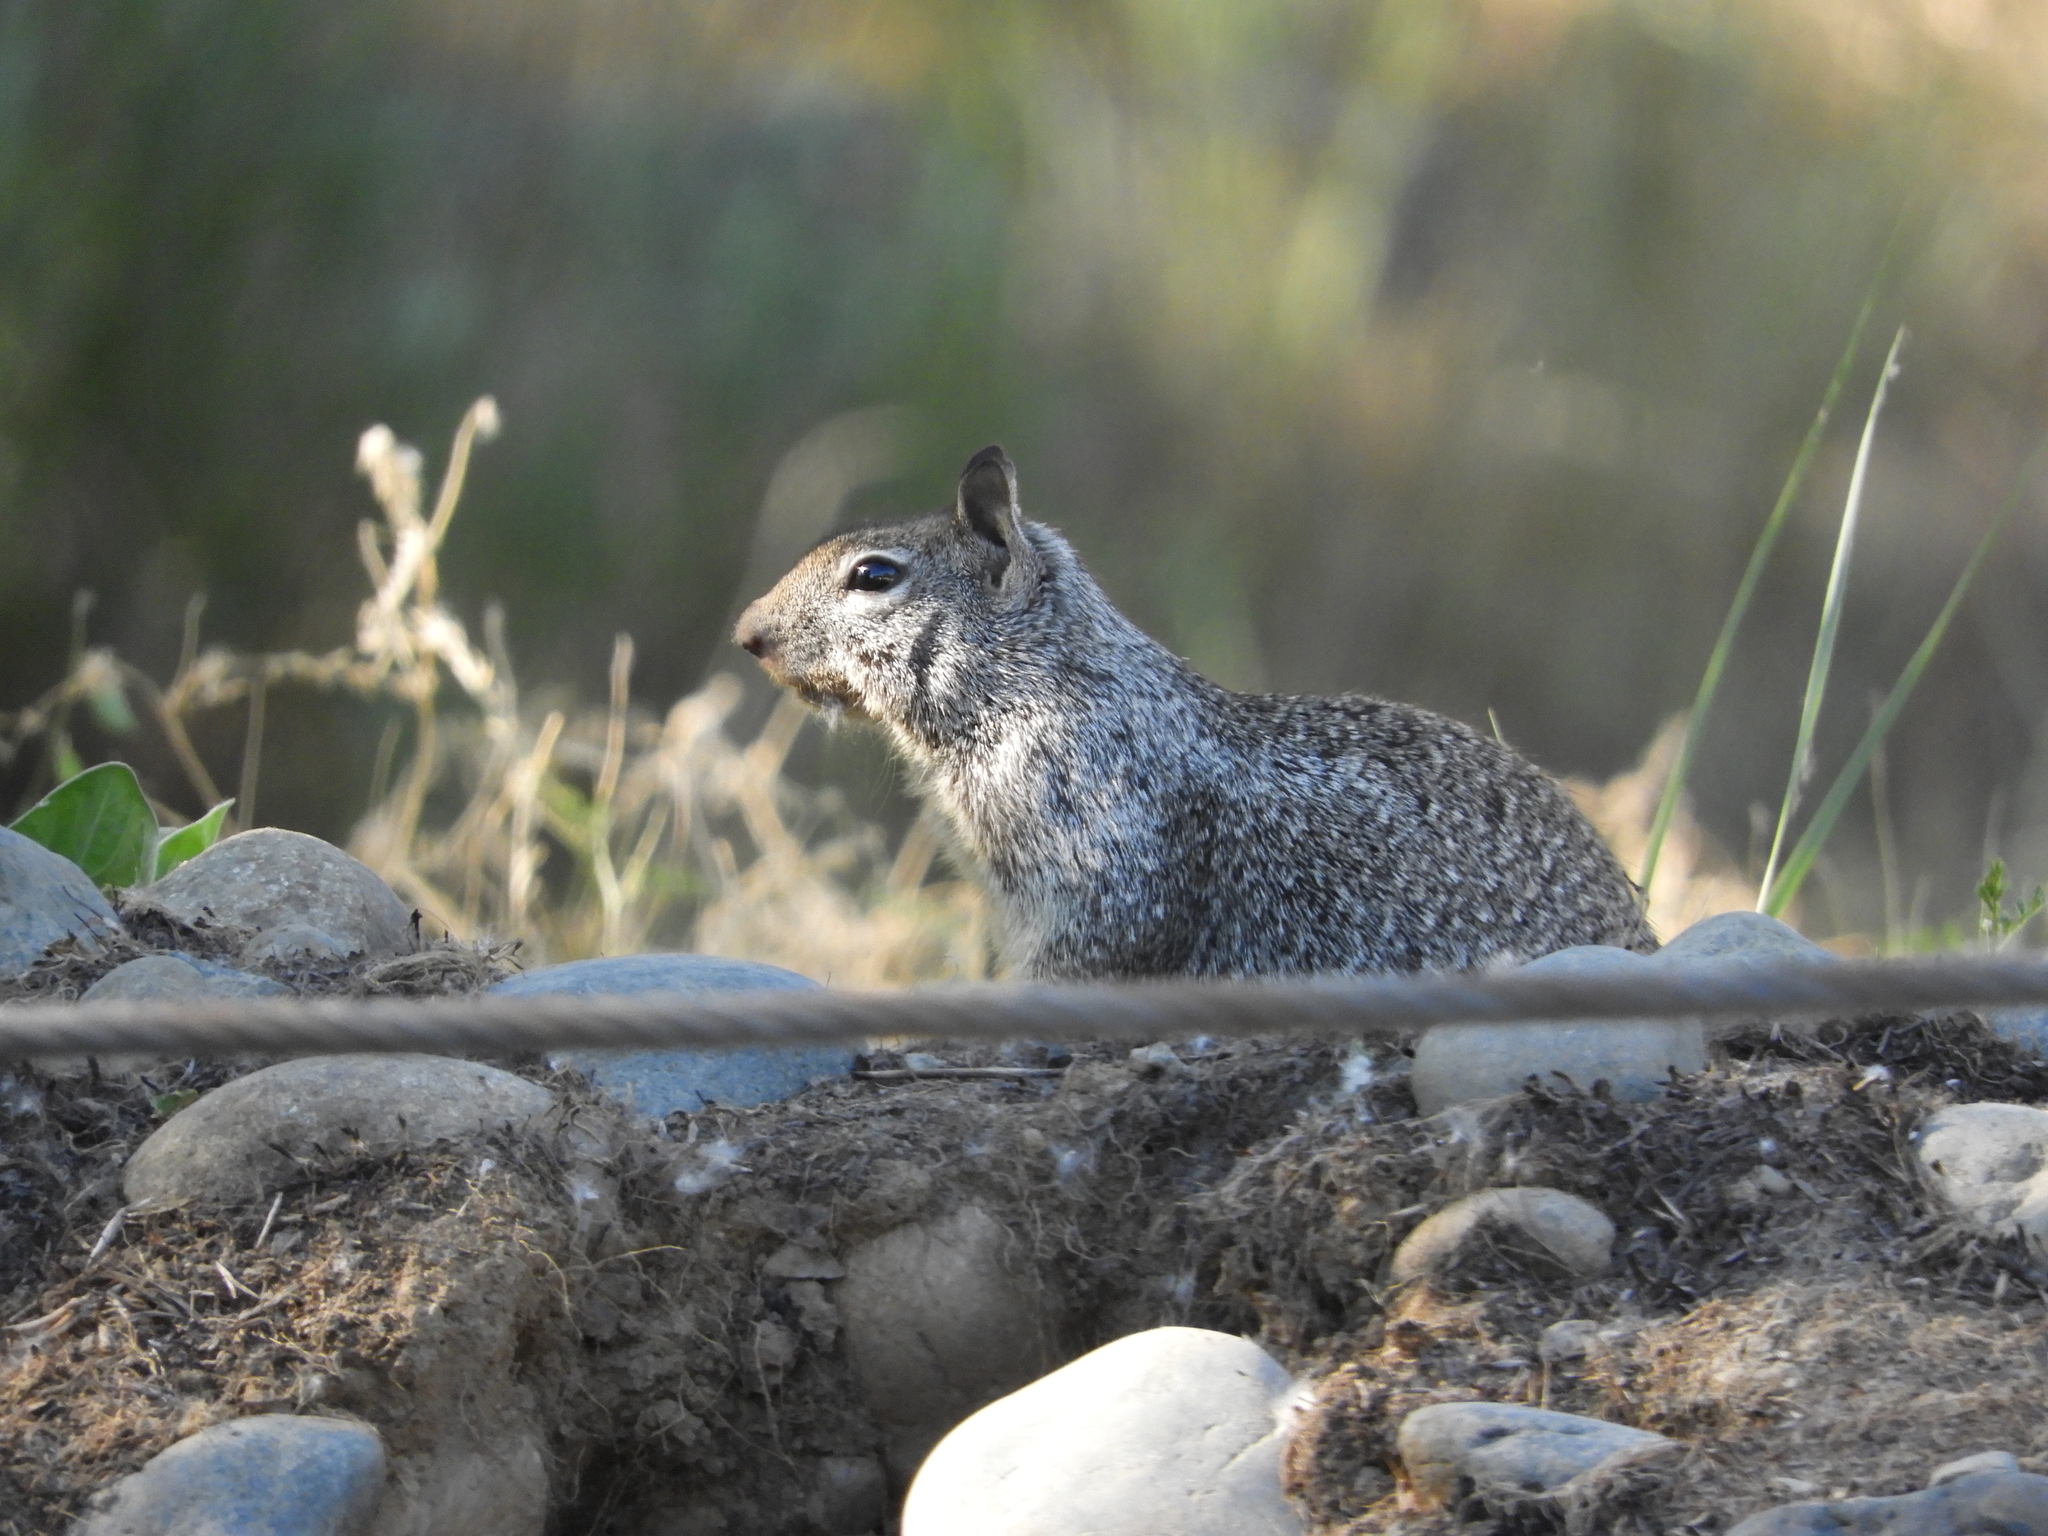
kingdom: Animalia
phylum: Chordata
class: Mammalia
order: Rodentia
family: Sciuridae
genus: Otospermophilus
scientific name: Otospermophilus beecheyi
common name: California ground squirrel
